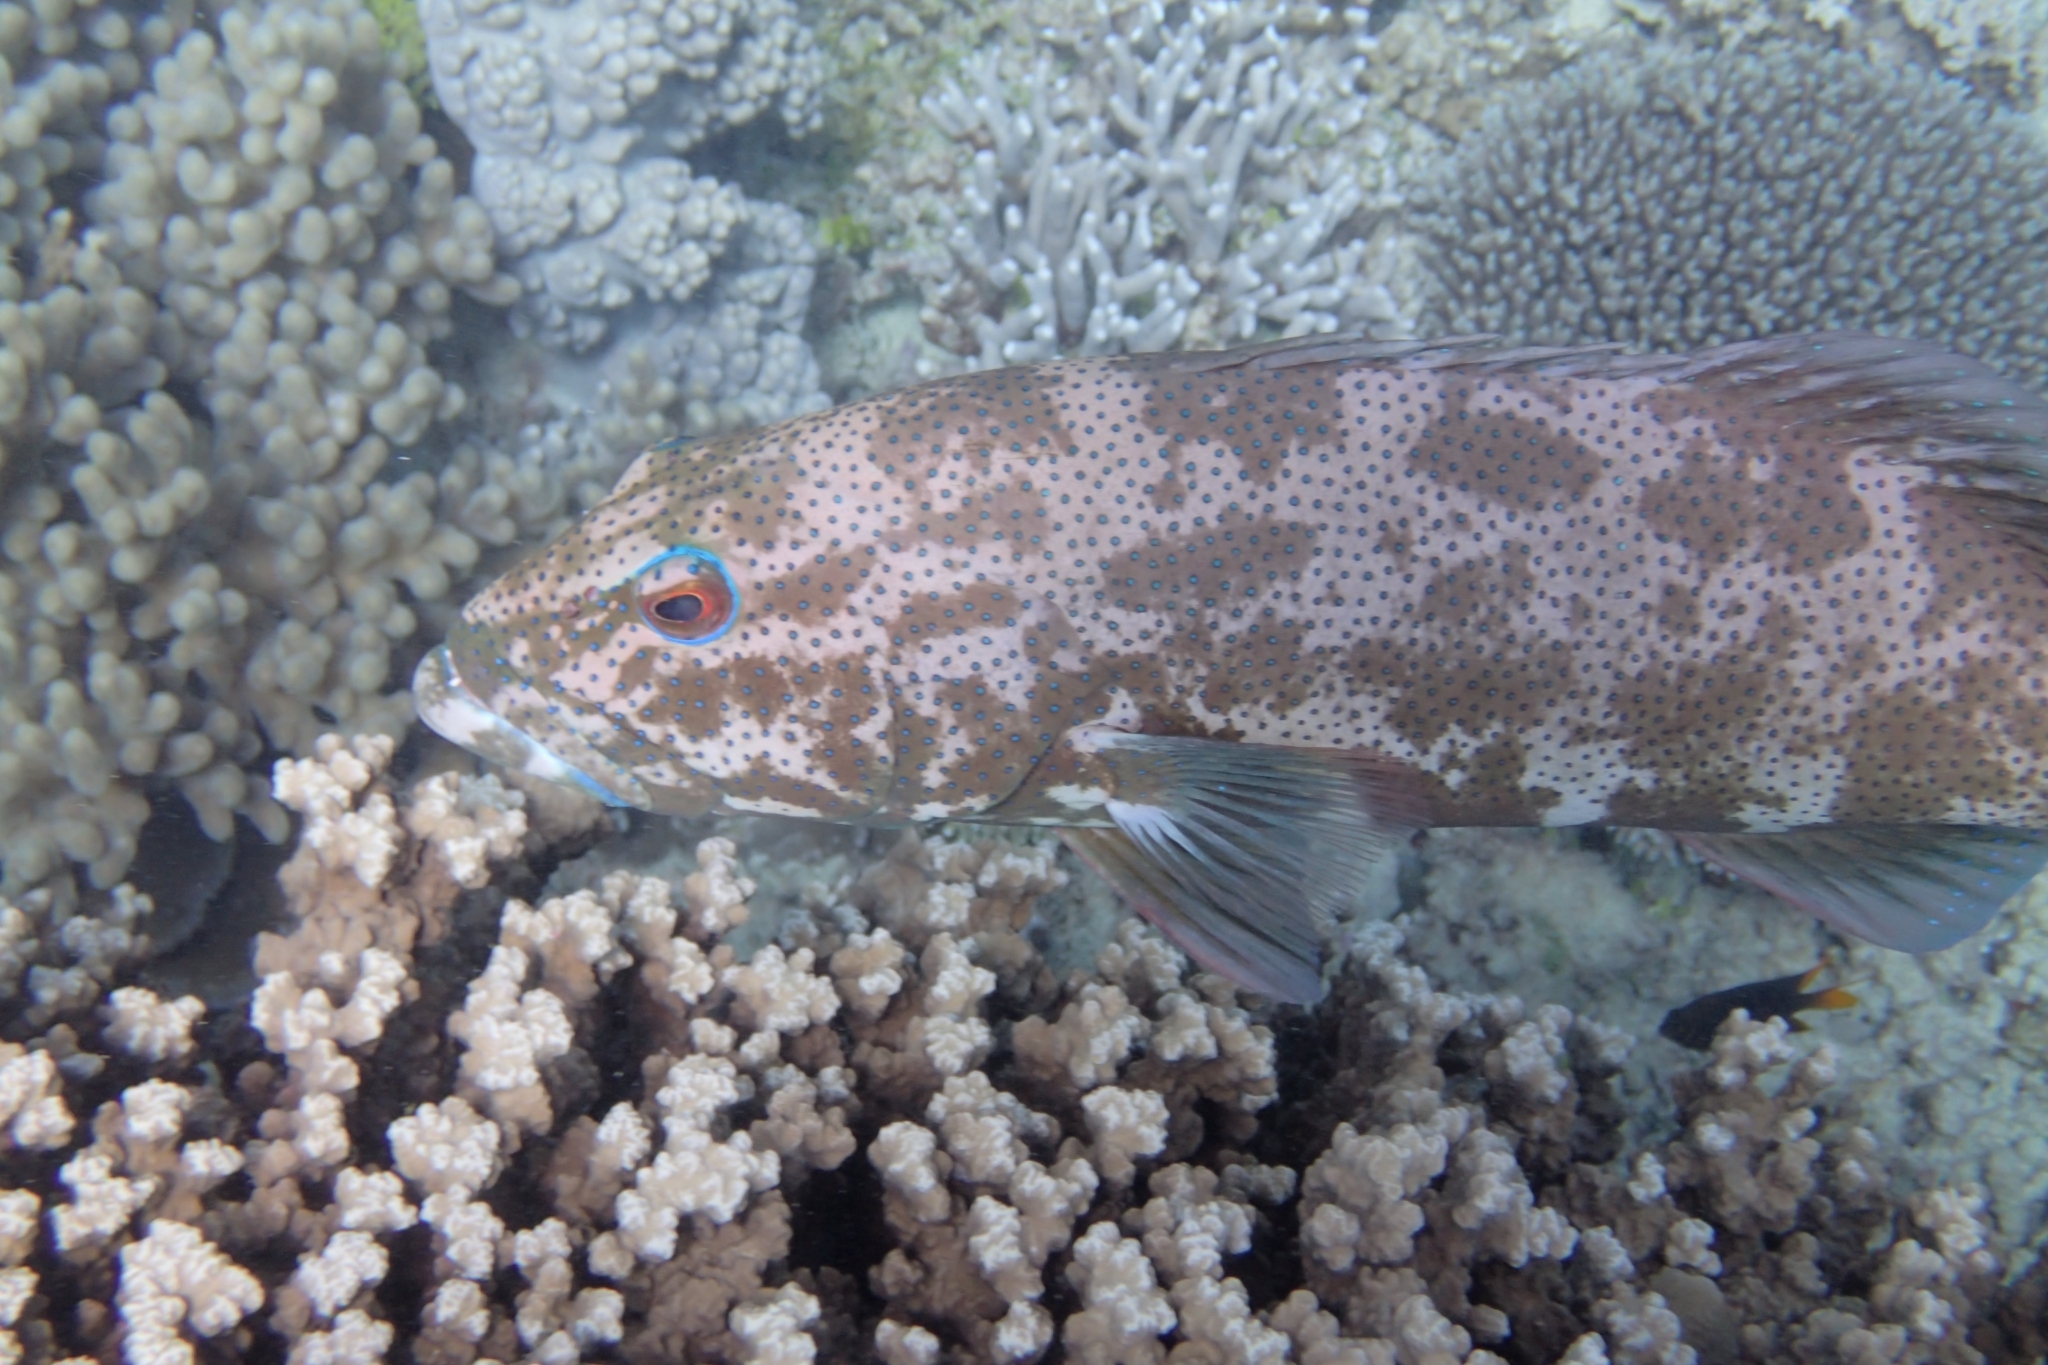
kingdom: Animalia
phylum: Chordata
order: Perciformes
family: Serranidae
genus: Plectropomus
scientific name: Plectropomus leopardus
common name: Coral trout
